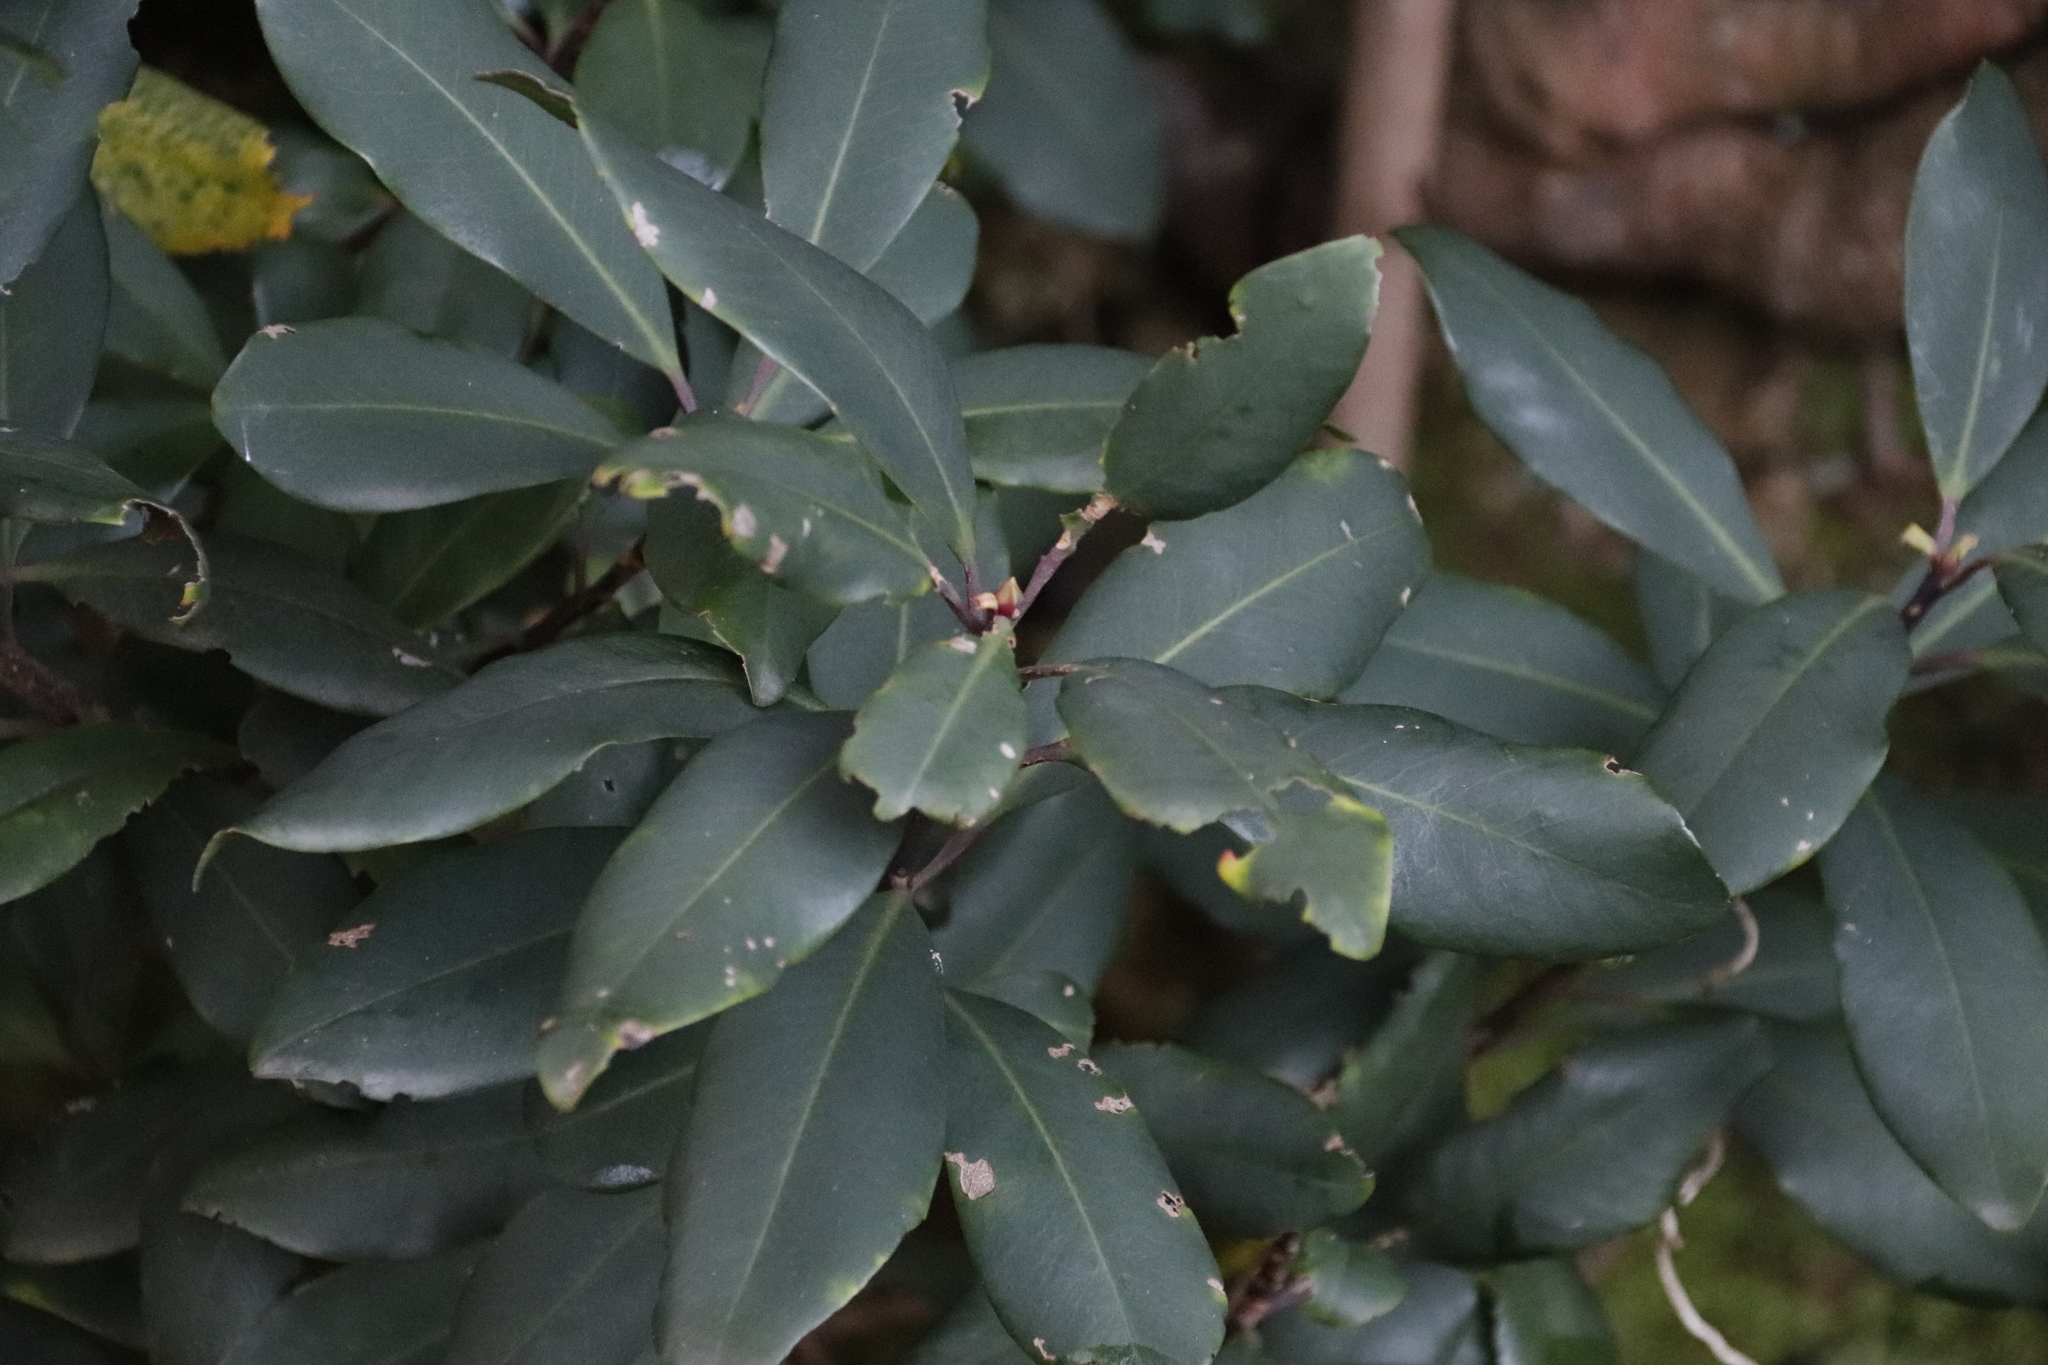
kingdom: Plantae
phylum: Tracheophyta
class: Magnoliopsida
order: Ericales
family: Primulaceae
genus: Myrsine
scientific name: Myrsine melanophloeos
